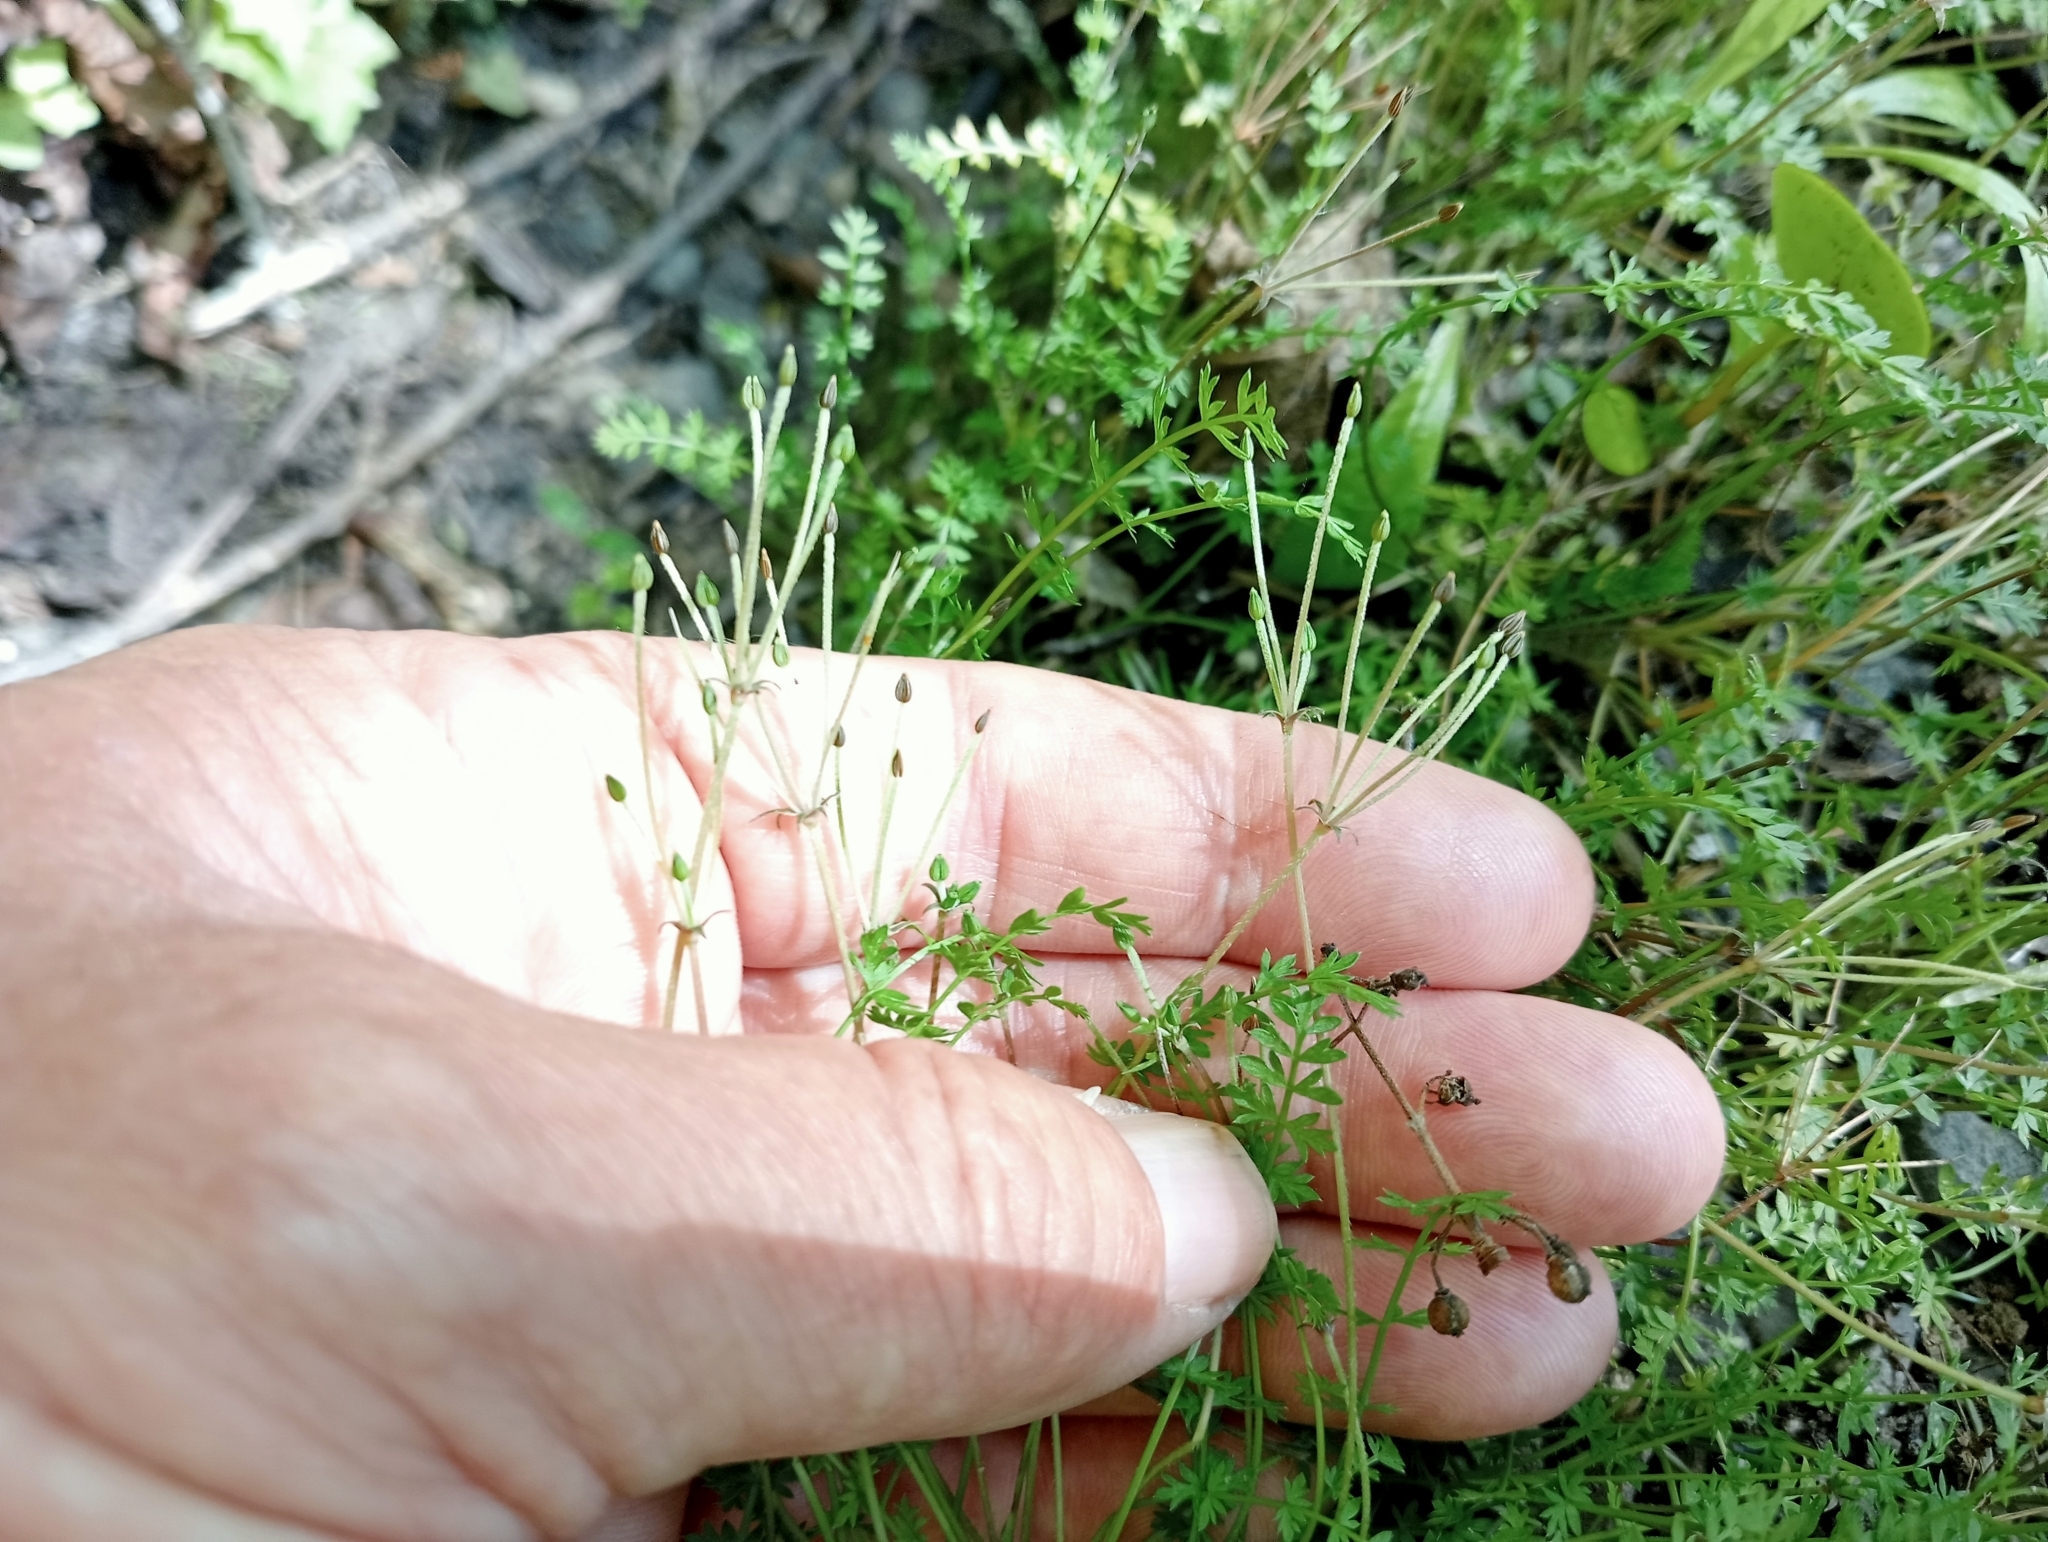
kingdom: Plantae
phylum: Tracheophyta
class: Magnoliopsida
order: Apiales
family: Apiaceae
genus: Chaerophyllum
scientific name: Chaerophyllum colensoi
